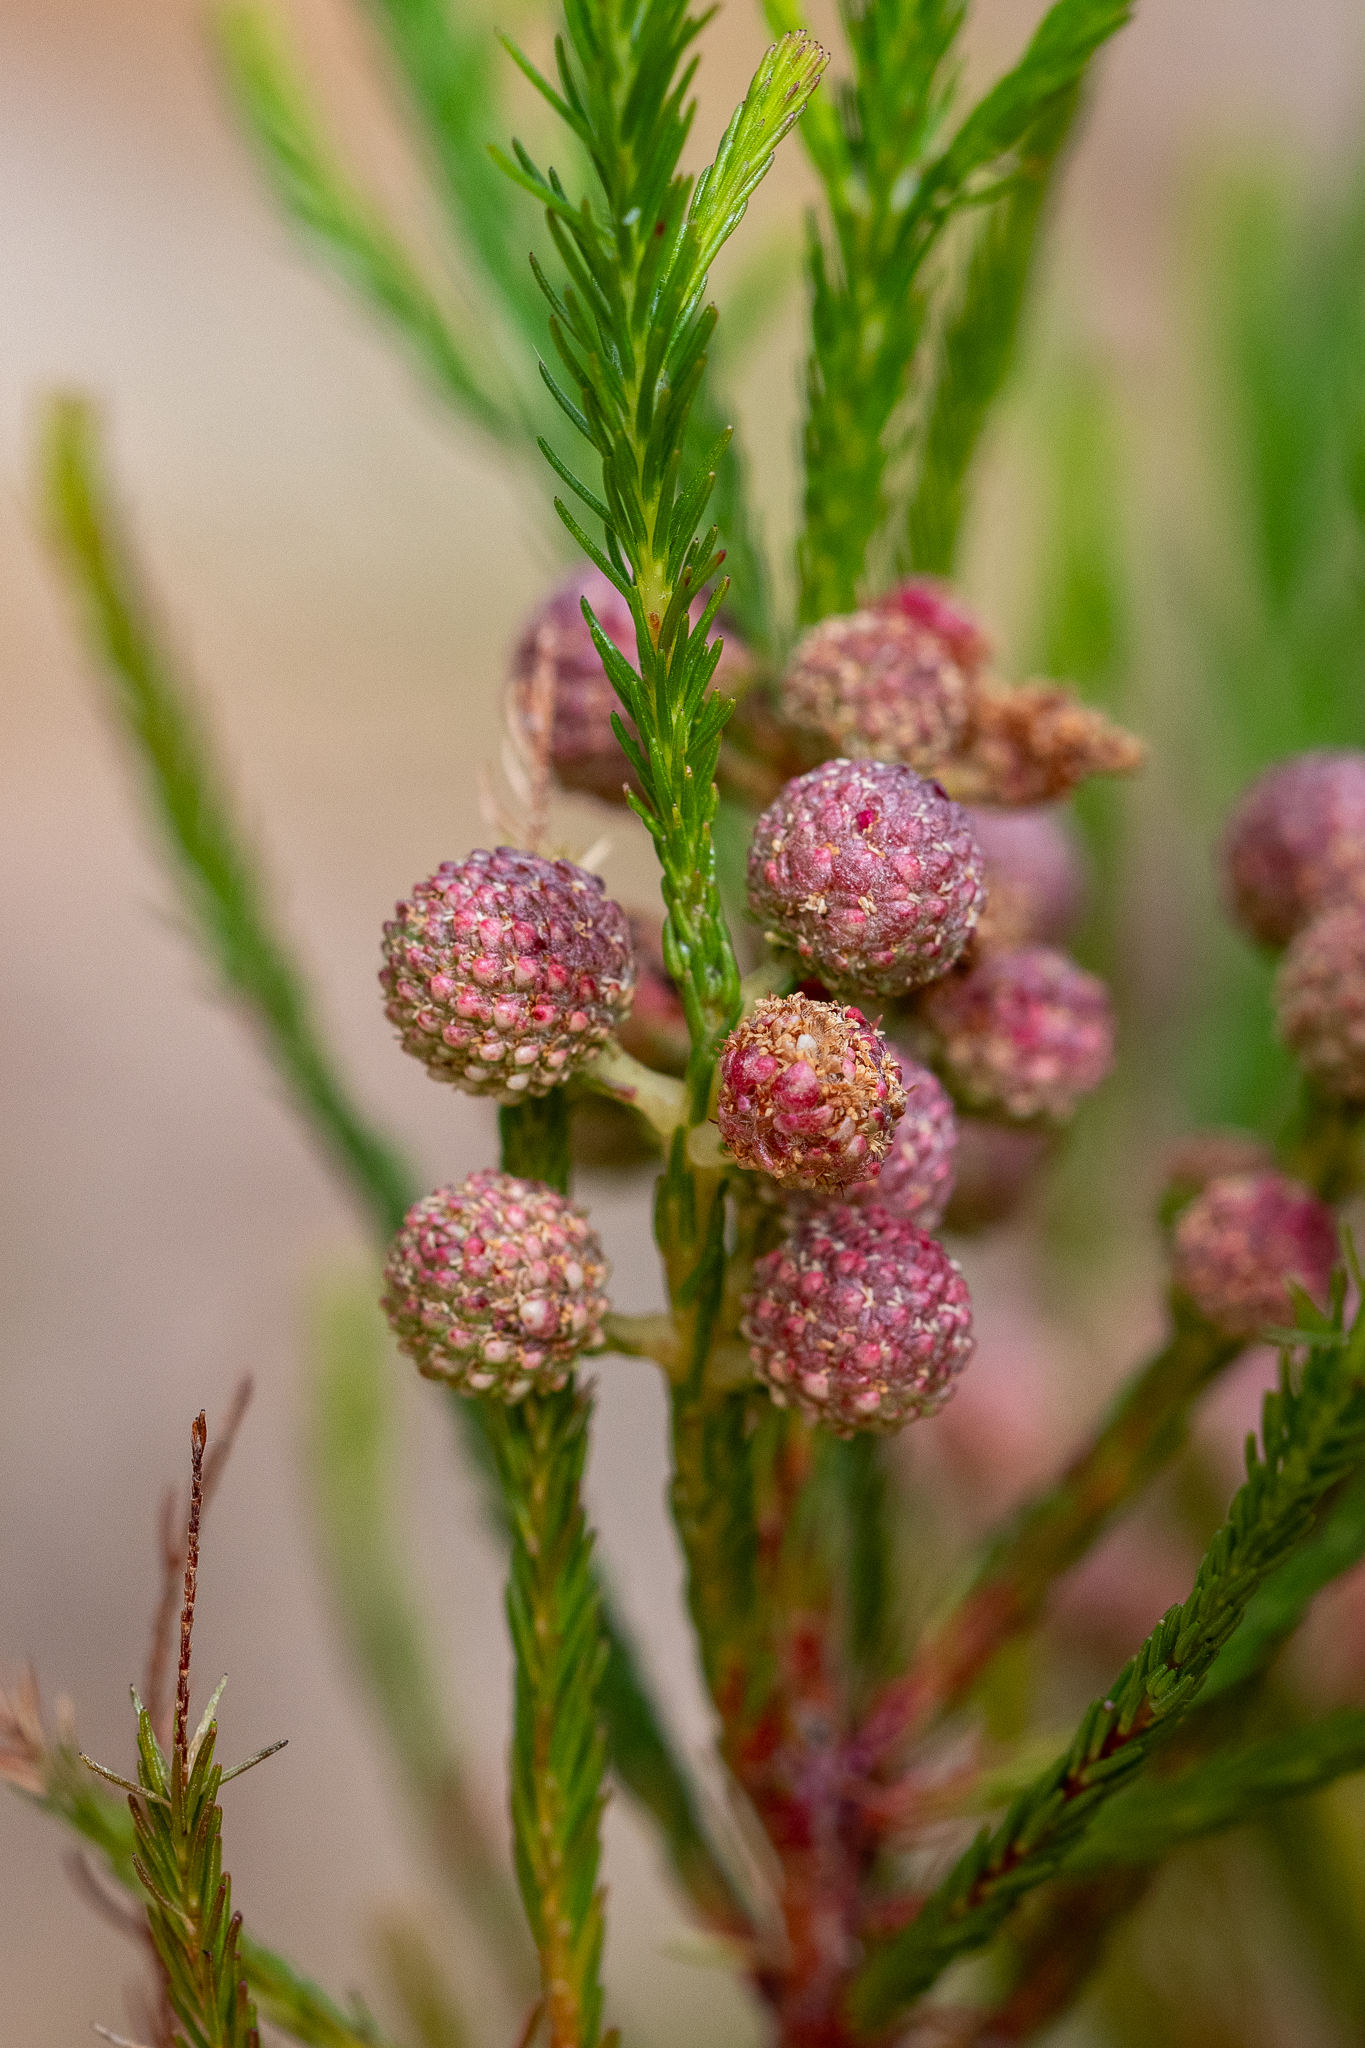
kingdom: Plantae
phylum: Tracheophyta
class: Magnoliopsida
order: Bruniales
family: Bruniaceae
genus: Berzelia
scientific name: Berzelia lanuginosa
